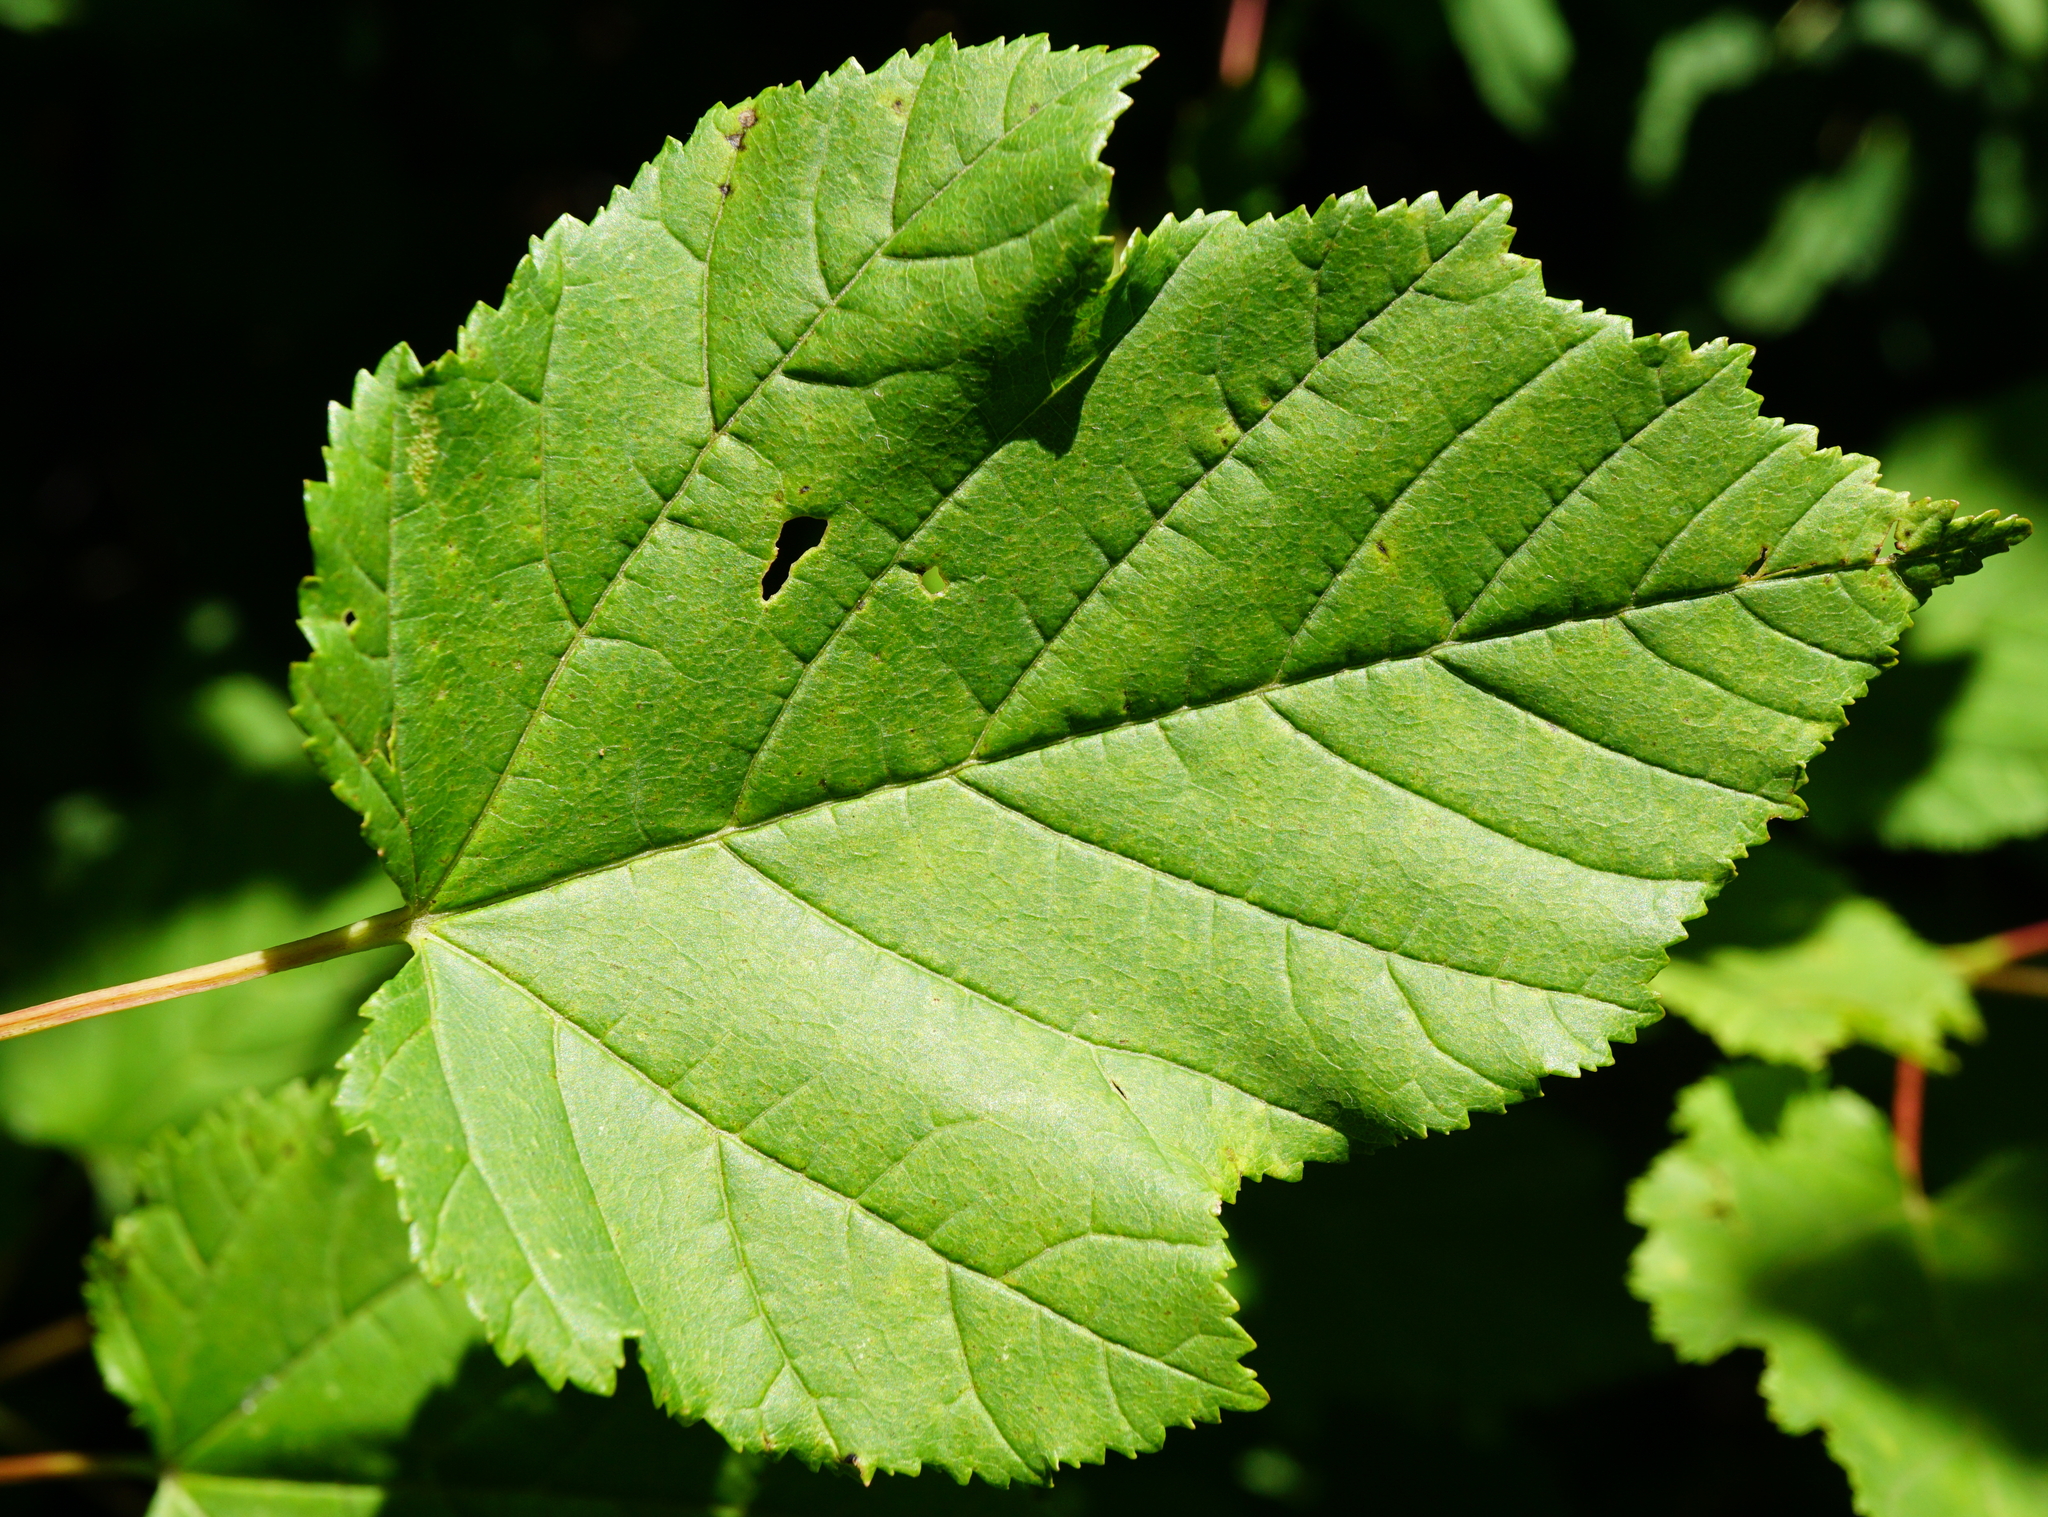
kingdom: Plantae
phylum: Tracheophyta
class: Magnoliopsida
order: Sapindales
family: Sapindaceae
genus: Acer
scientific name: Acer tataricum
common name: Tartar maple
